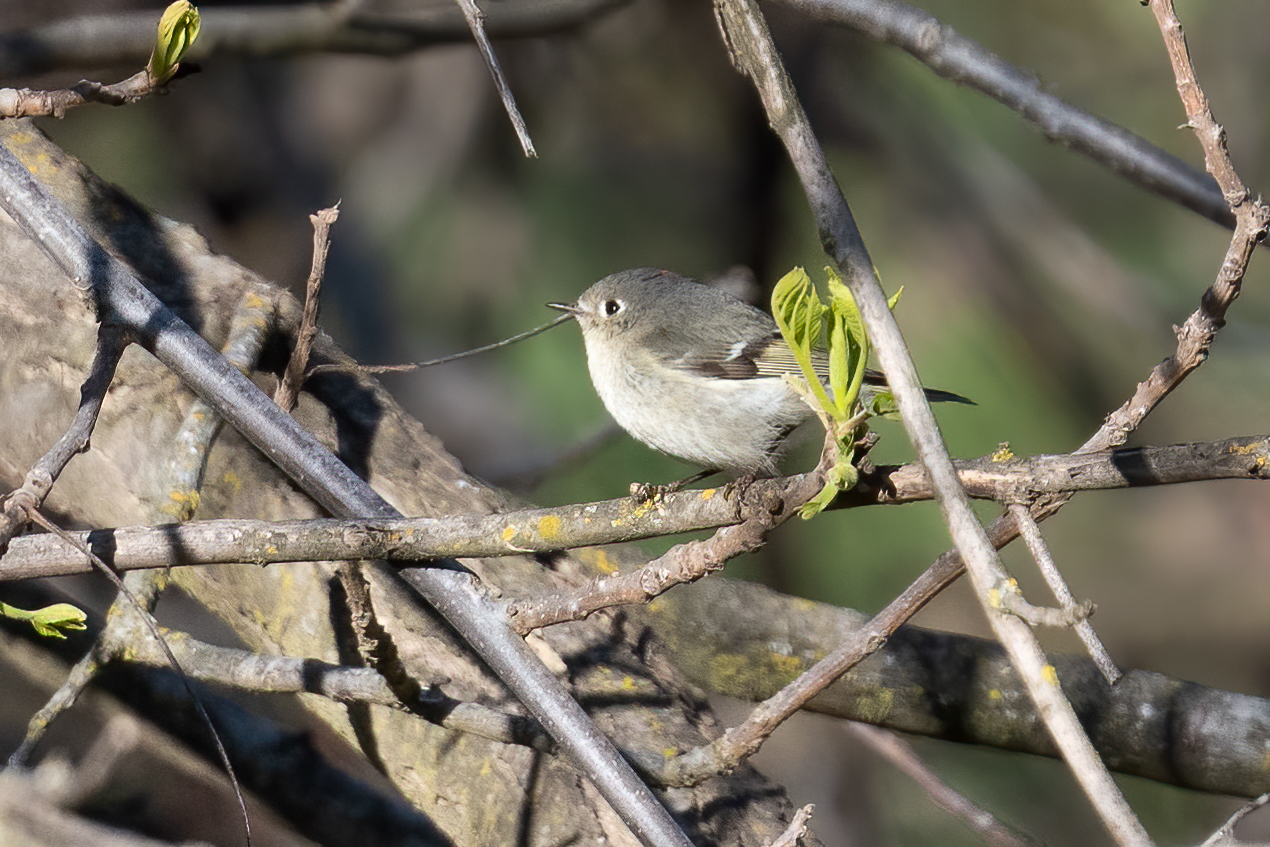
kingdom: Animalia
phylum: Chordata
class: Aves
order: Passeriformes
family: Regulidae
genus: Regulus
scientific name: Regulus calendula
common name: Ruby-crowned kinglet
